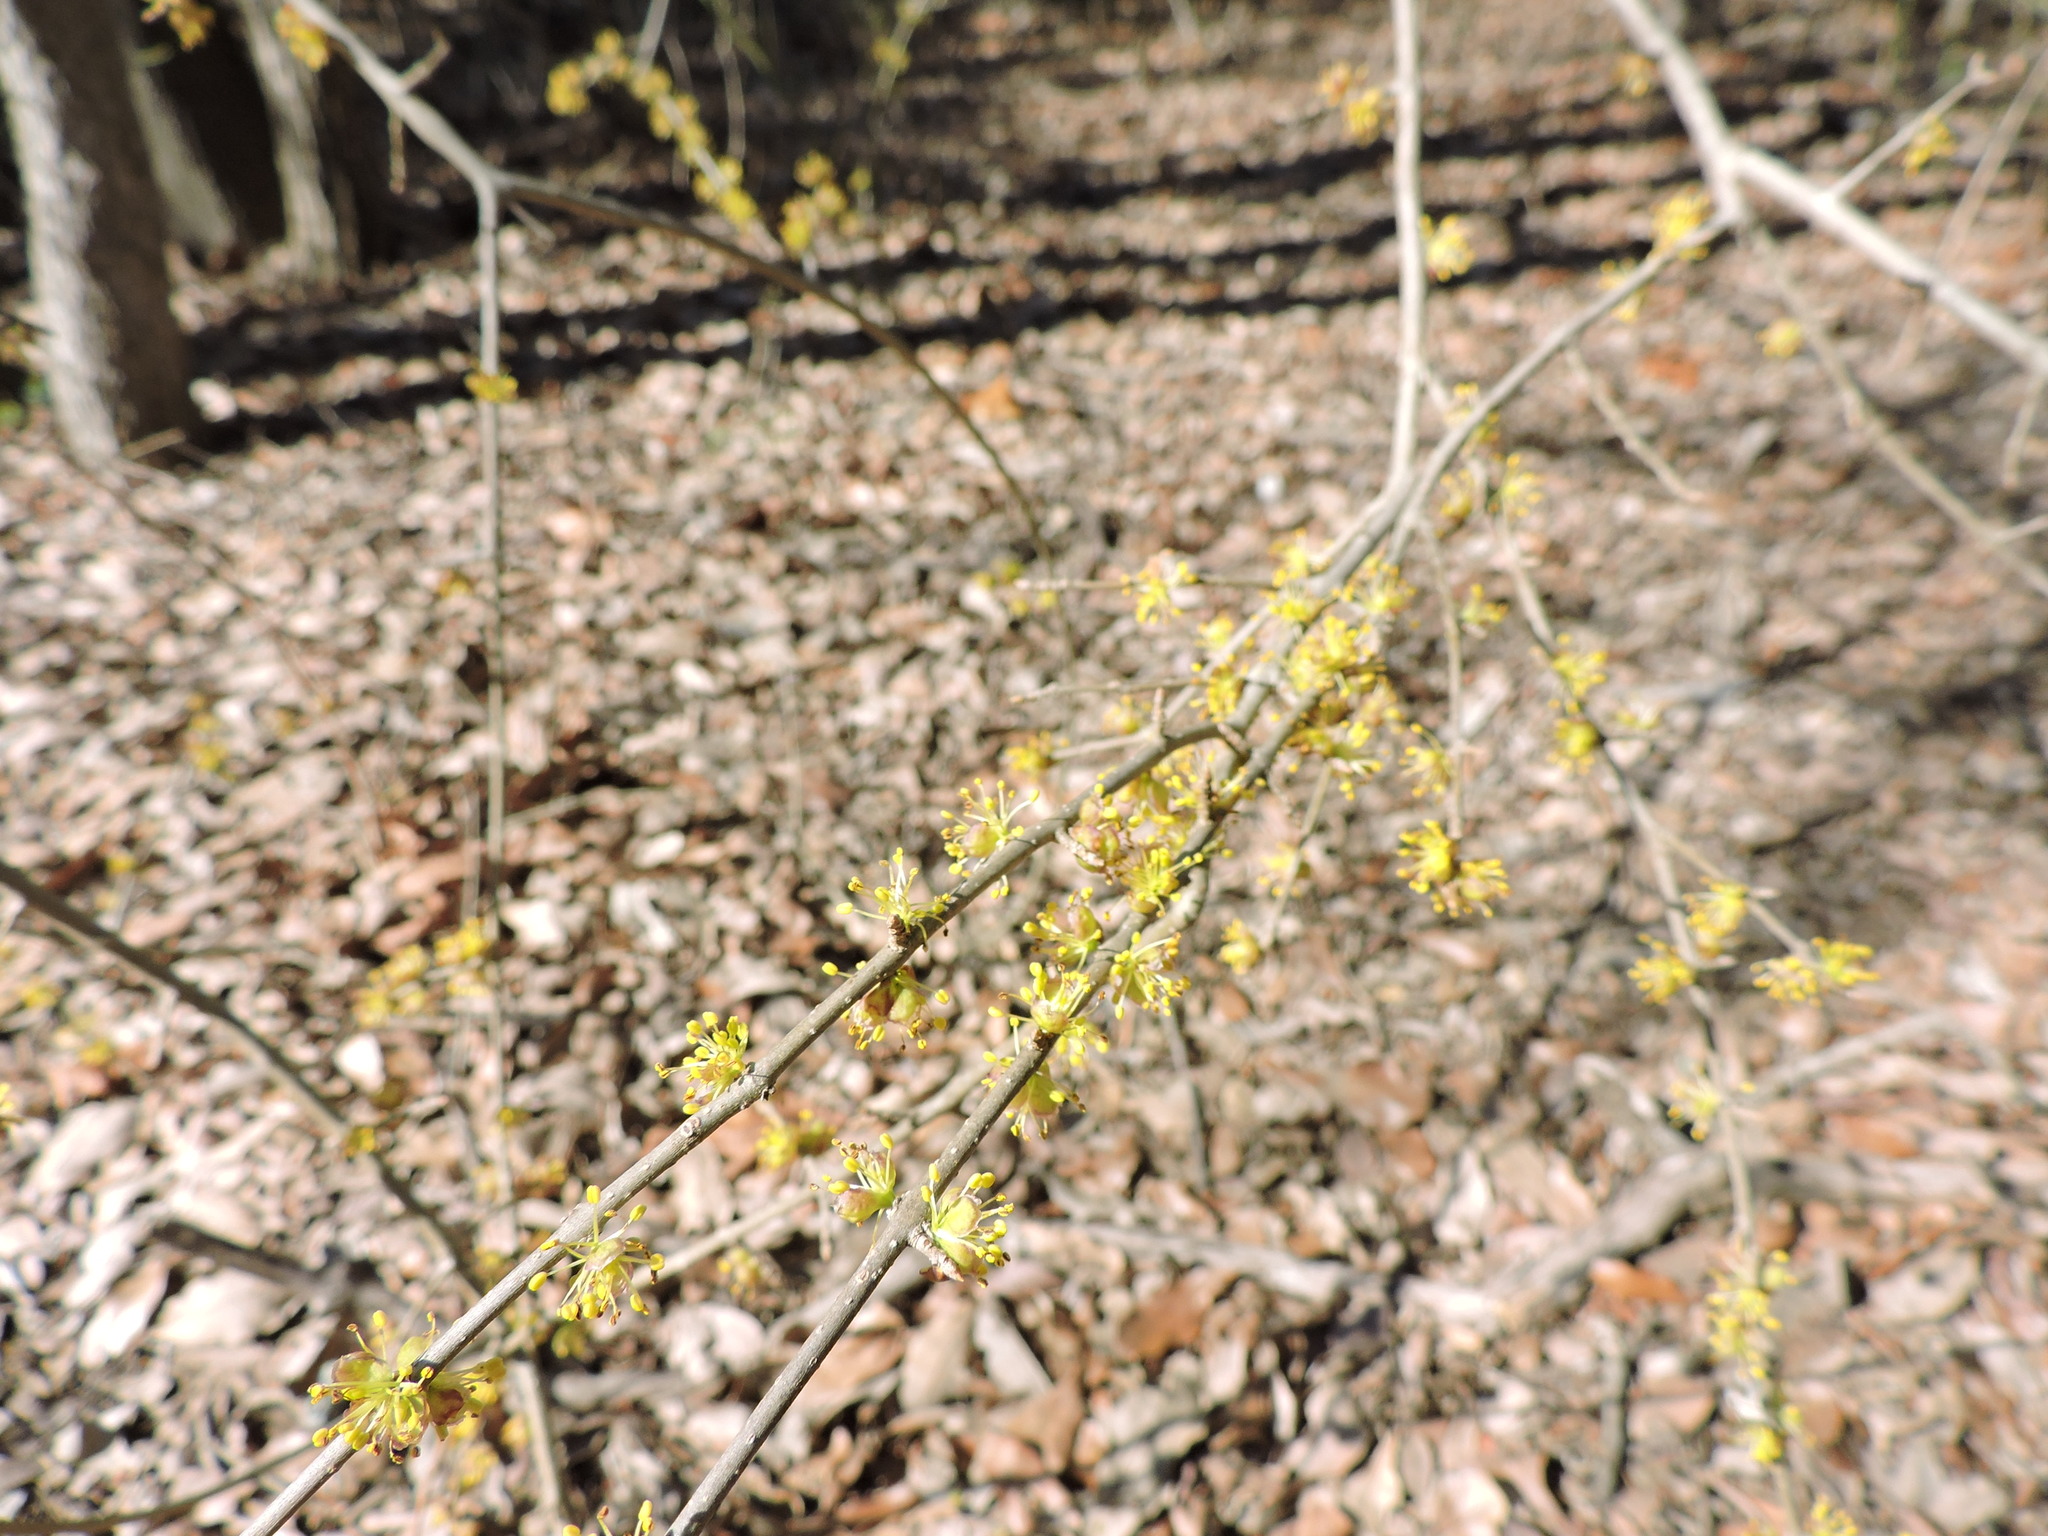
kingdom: Plantae
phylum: Tracheophyta
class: Magnoliopsida
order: Lamiales
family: Oleaceae
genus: Forestiera
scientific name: Forestiera pubescens
